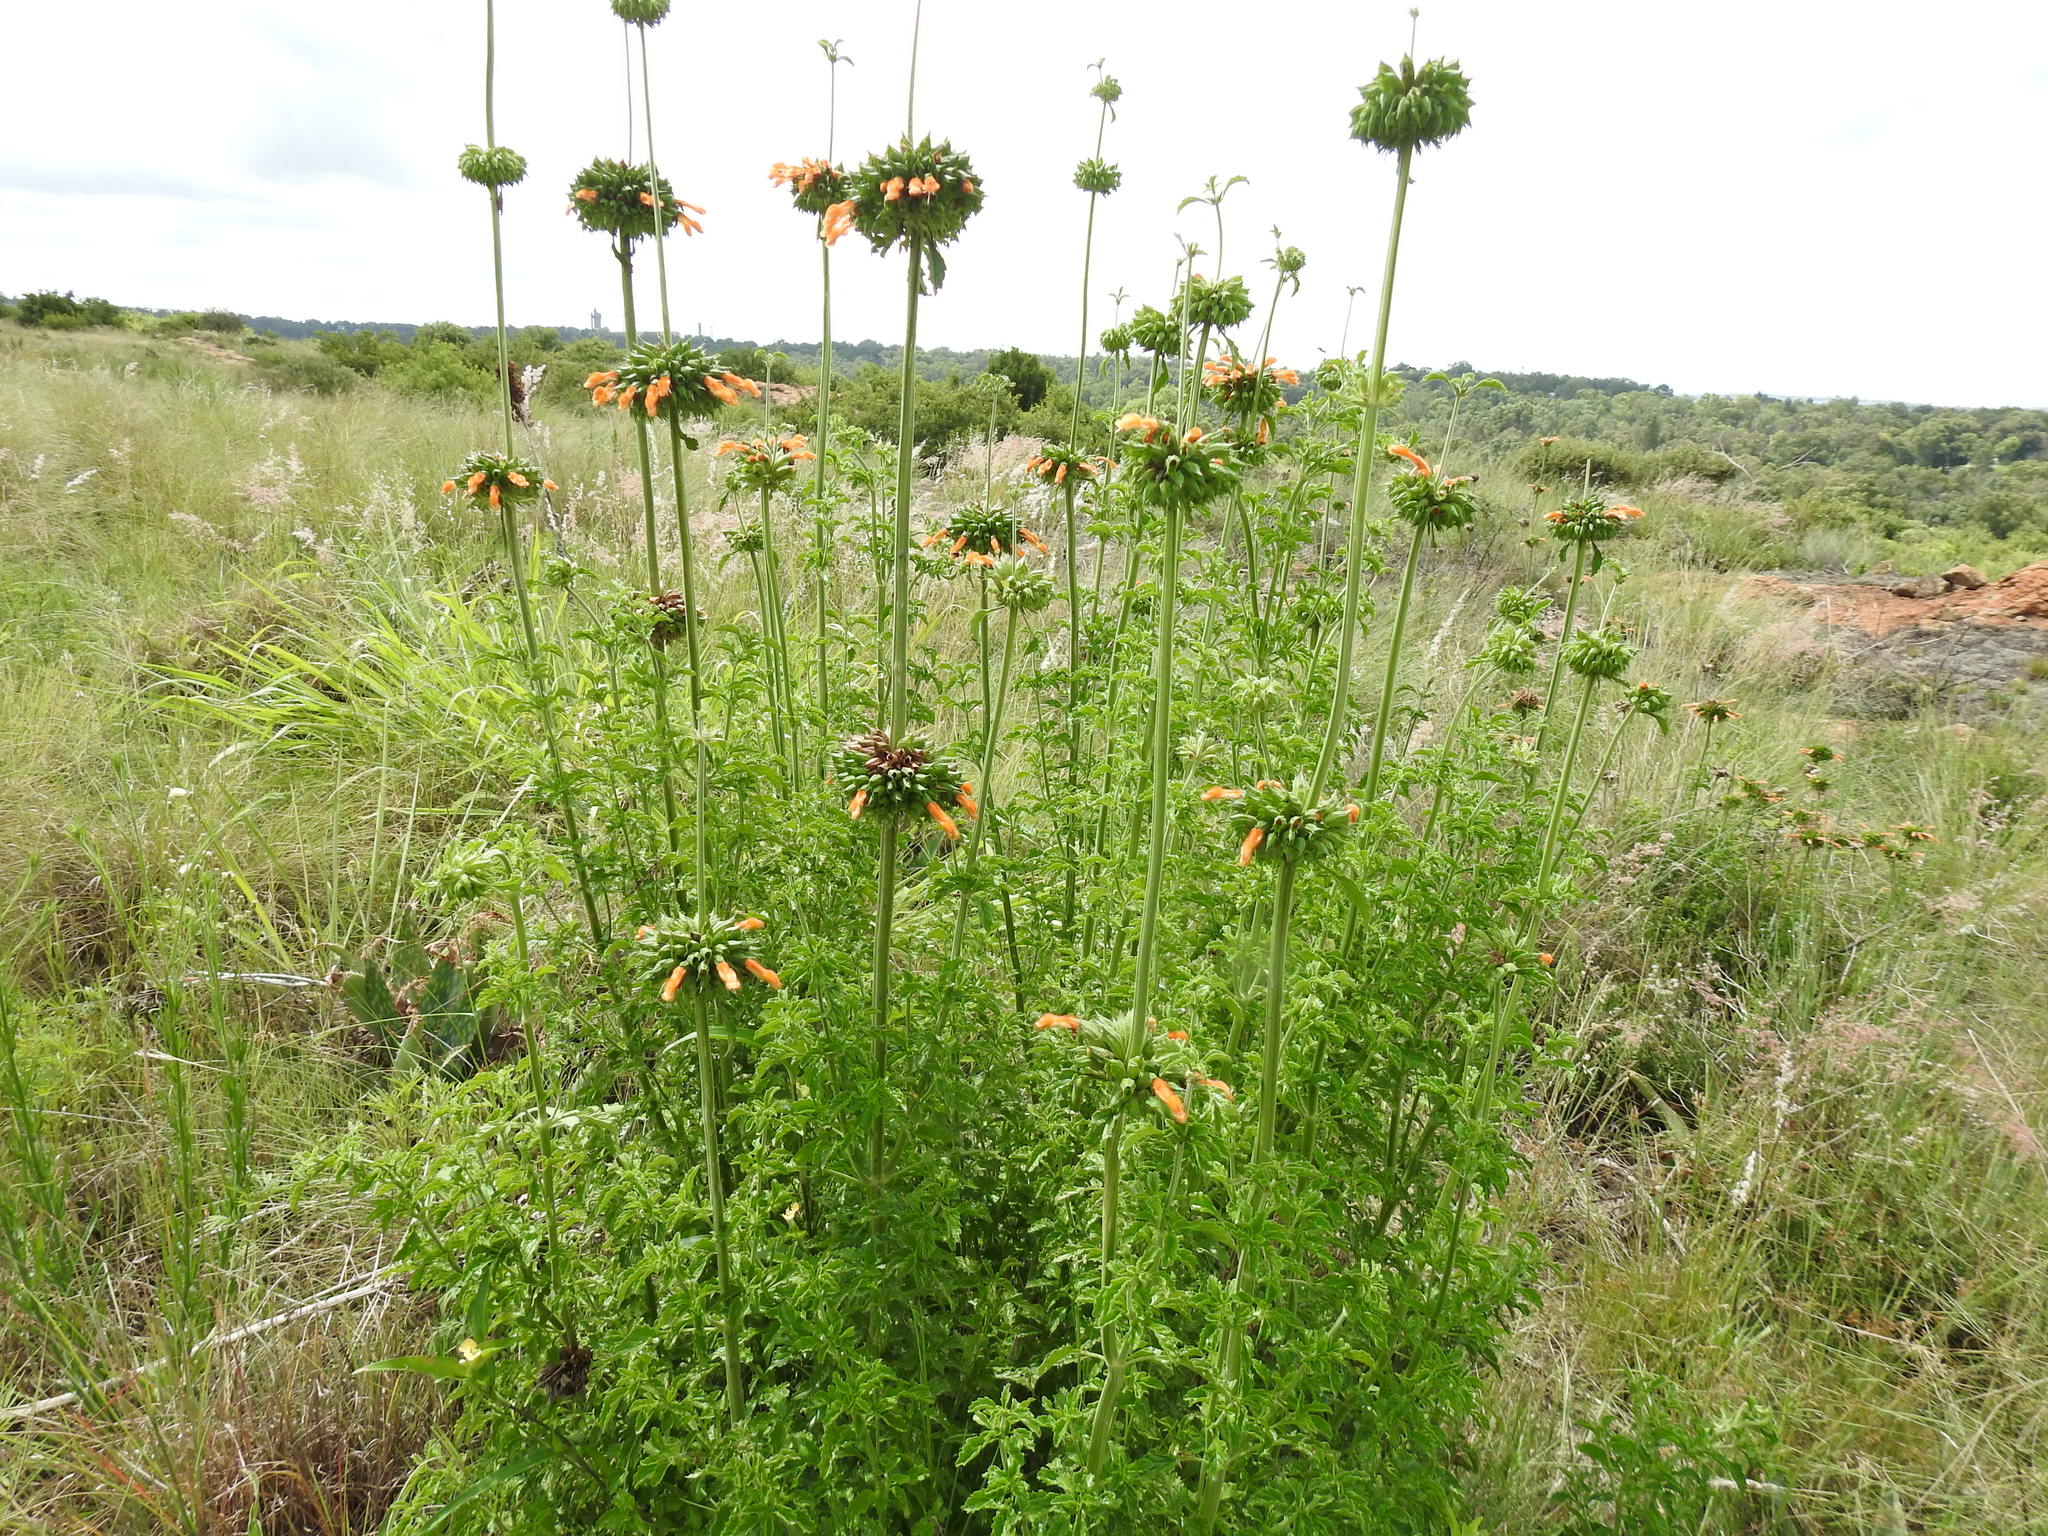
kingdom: Plantae
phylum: Tracheophyta
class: Magnoliopsida
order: Lamiales
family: Lamiaceae
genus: Leonotis
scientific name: Leonotis ocymifolia
